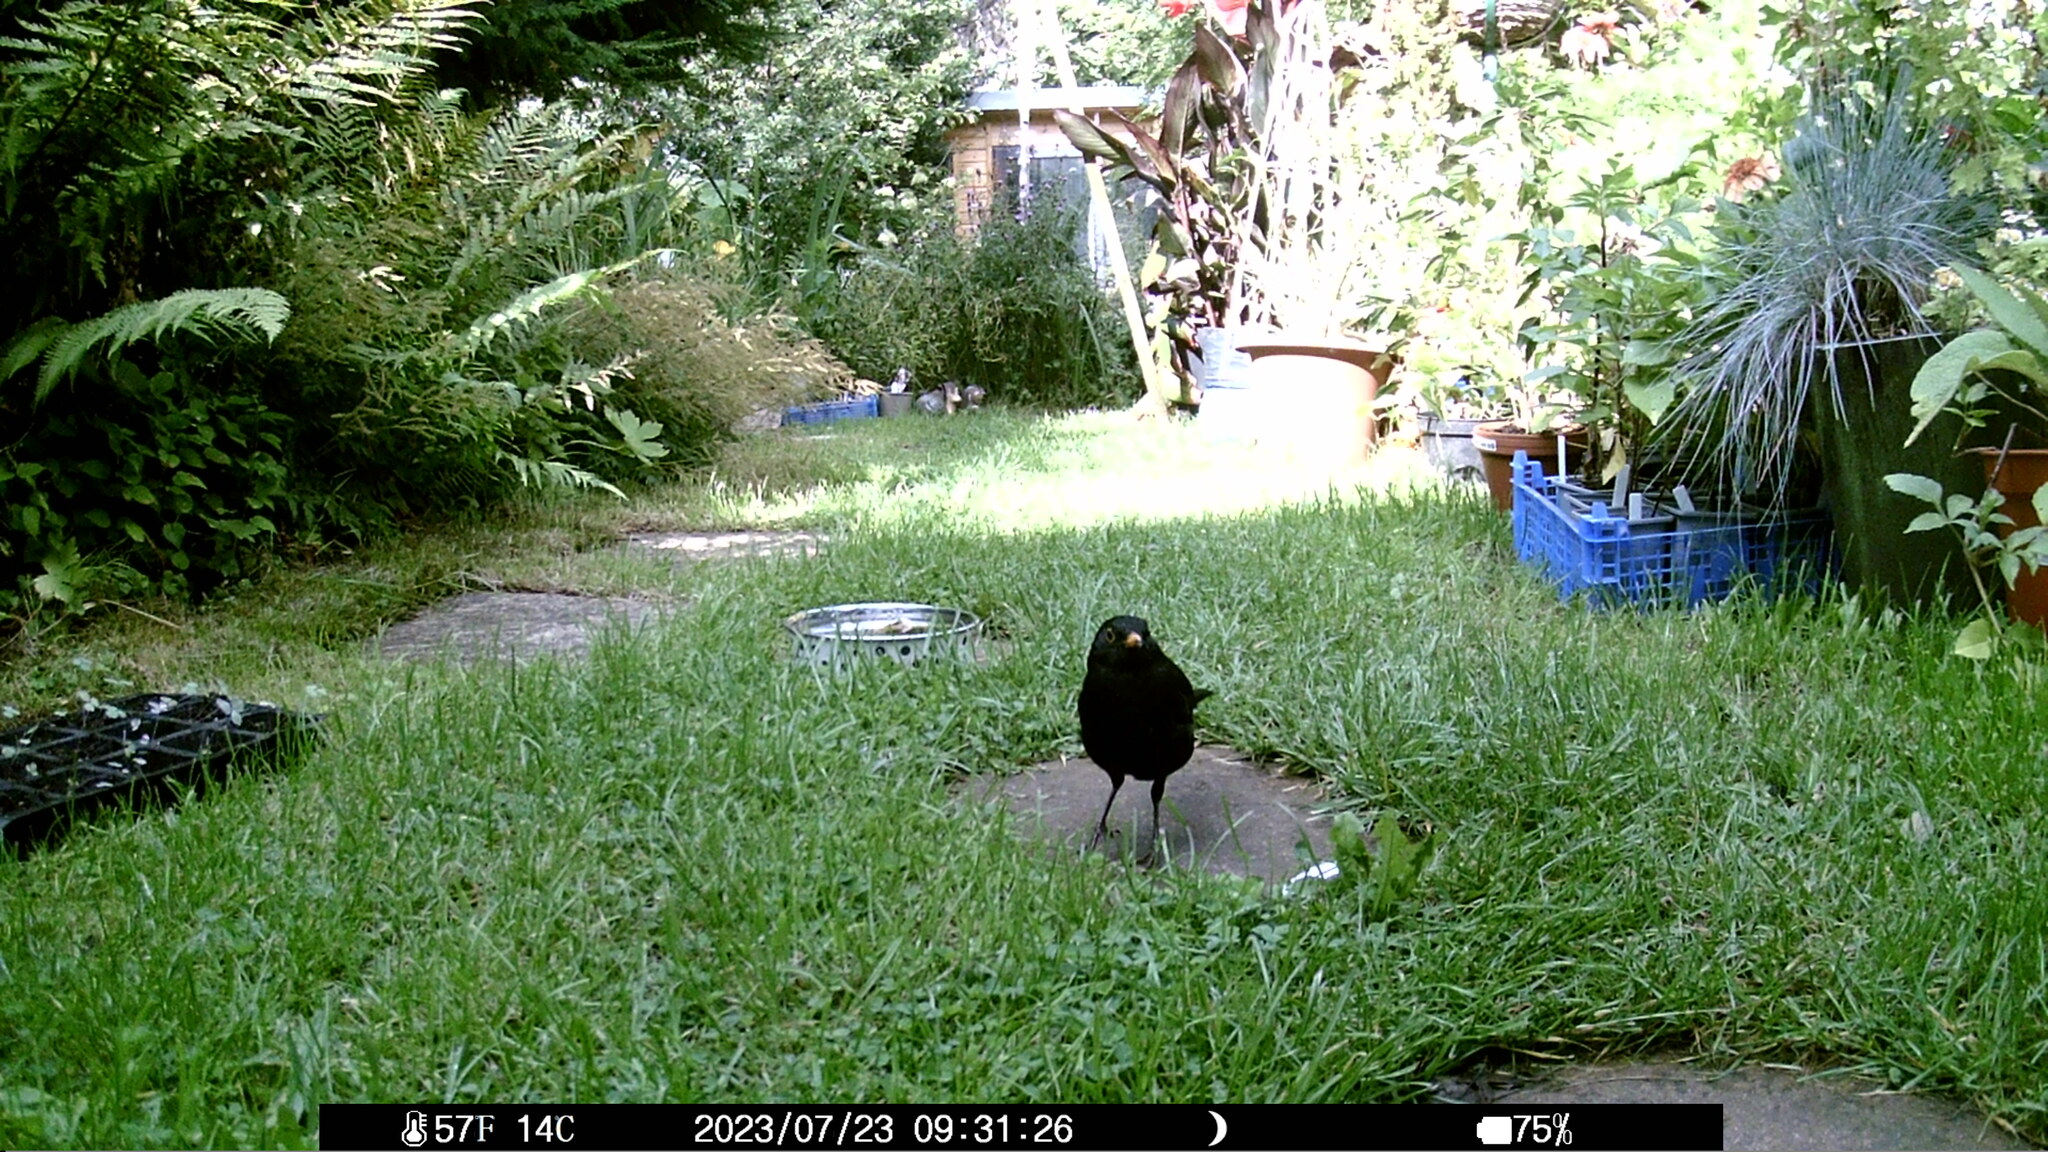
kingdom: Animalia
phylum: Chordata
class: Aves
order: Passeriformes
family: Turdidae
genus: Turdus
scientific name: Turdus merula
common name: Common blackbird
